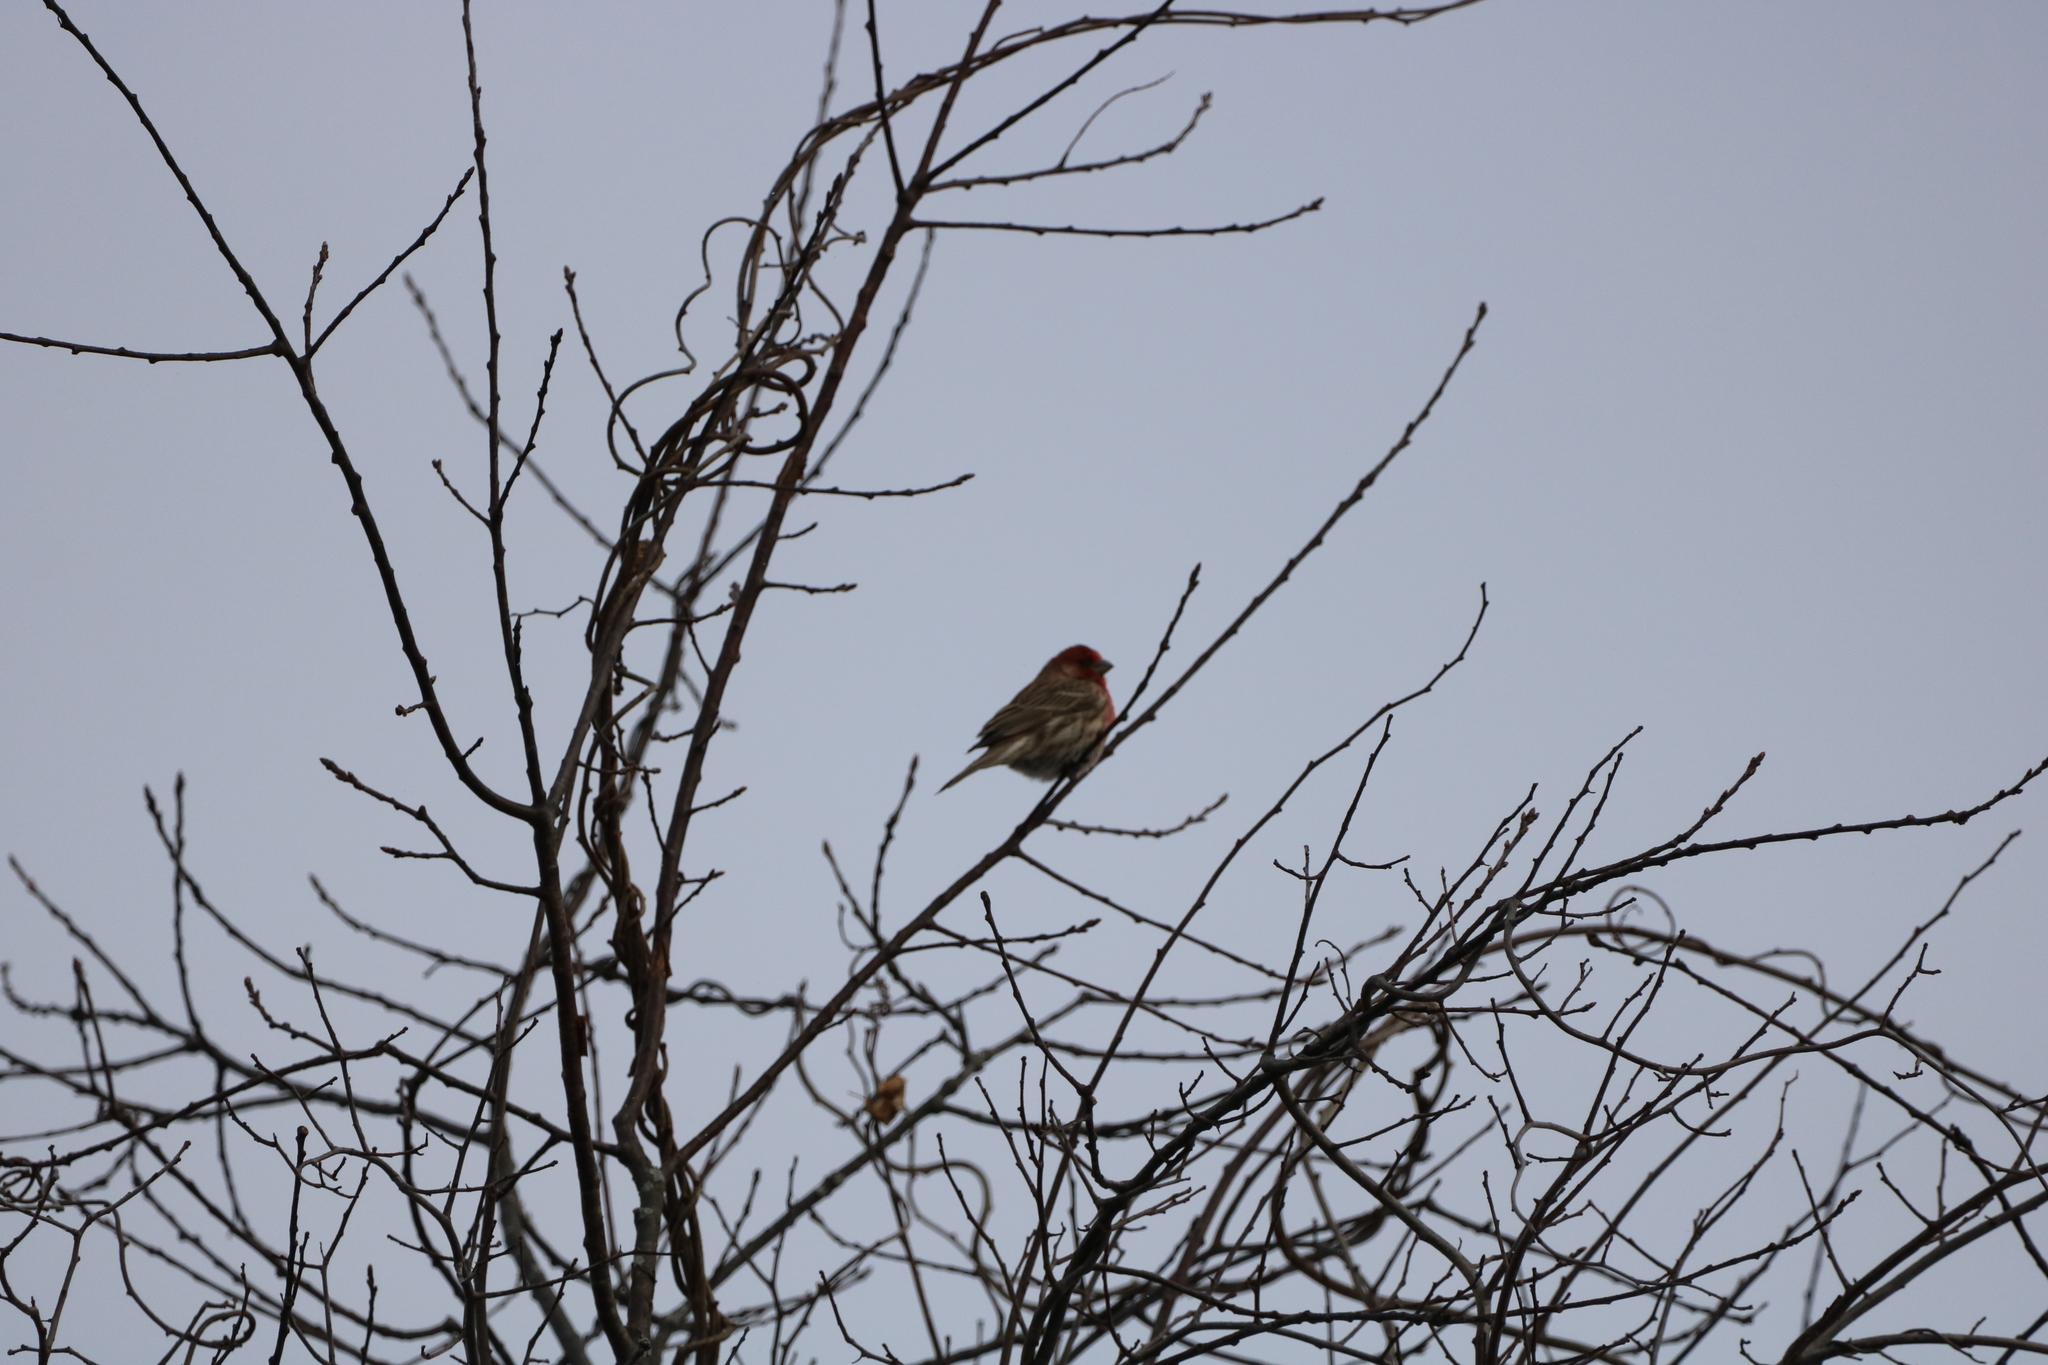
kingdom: Animalia
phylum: Chordata
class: Aves
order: Passeriformes
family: Fringillidae
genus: Haemorhous
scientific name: Haemorhous mexicanus
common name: House finch
